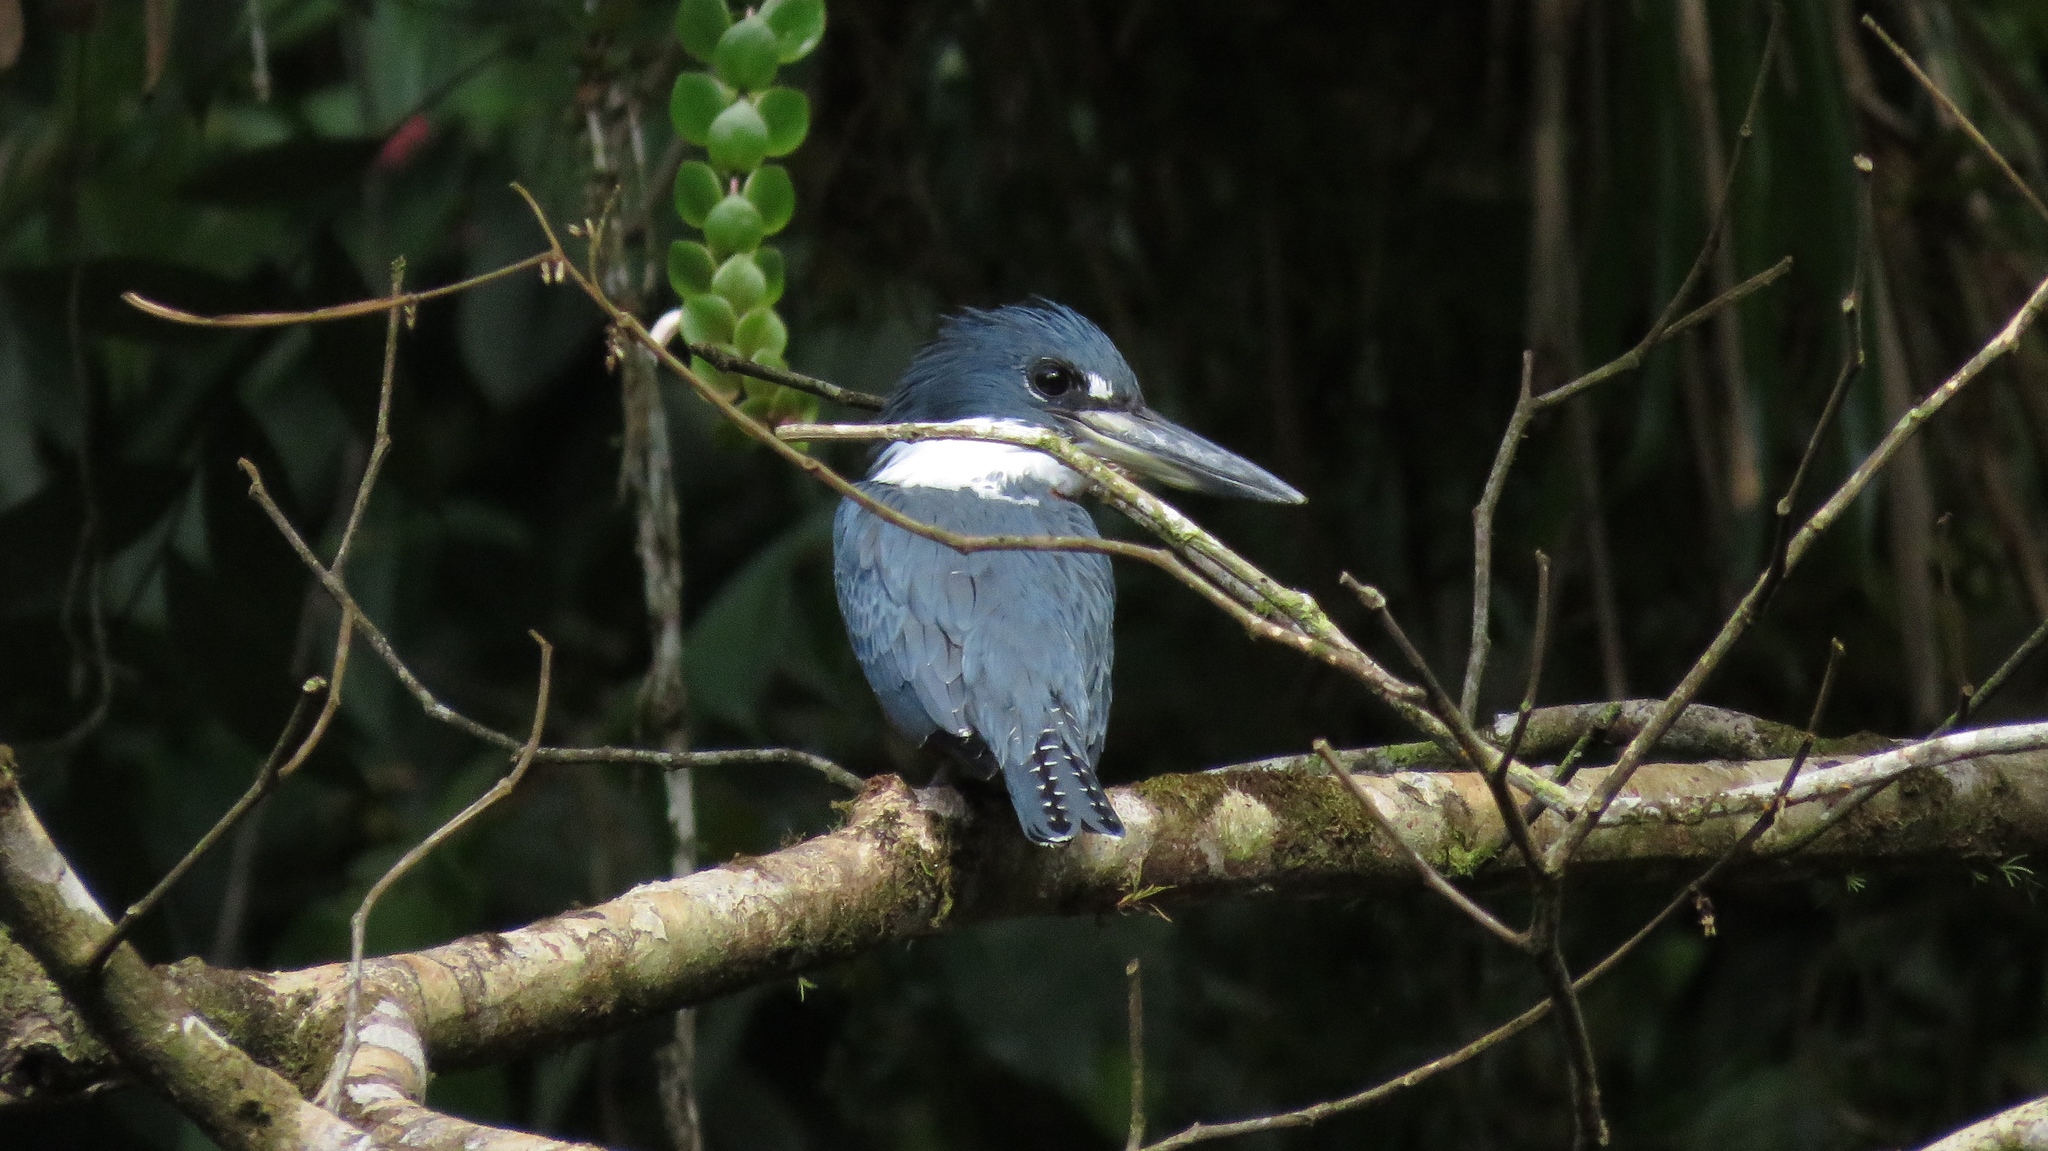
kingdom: Animalia
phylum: Chordata
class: Aves
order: Coraciiformes
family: Alcedinidae
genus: Megaceryle
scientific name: Megaceryle torquata
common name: Ringed kingfisher
